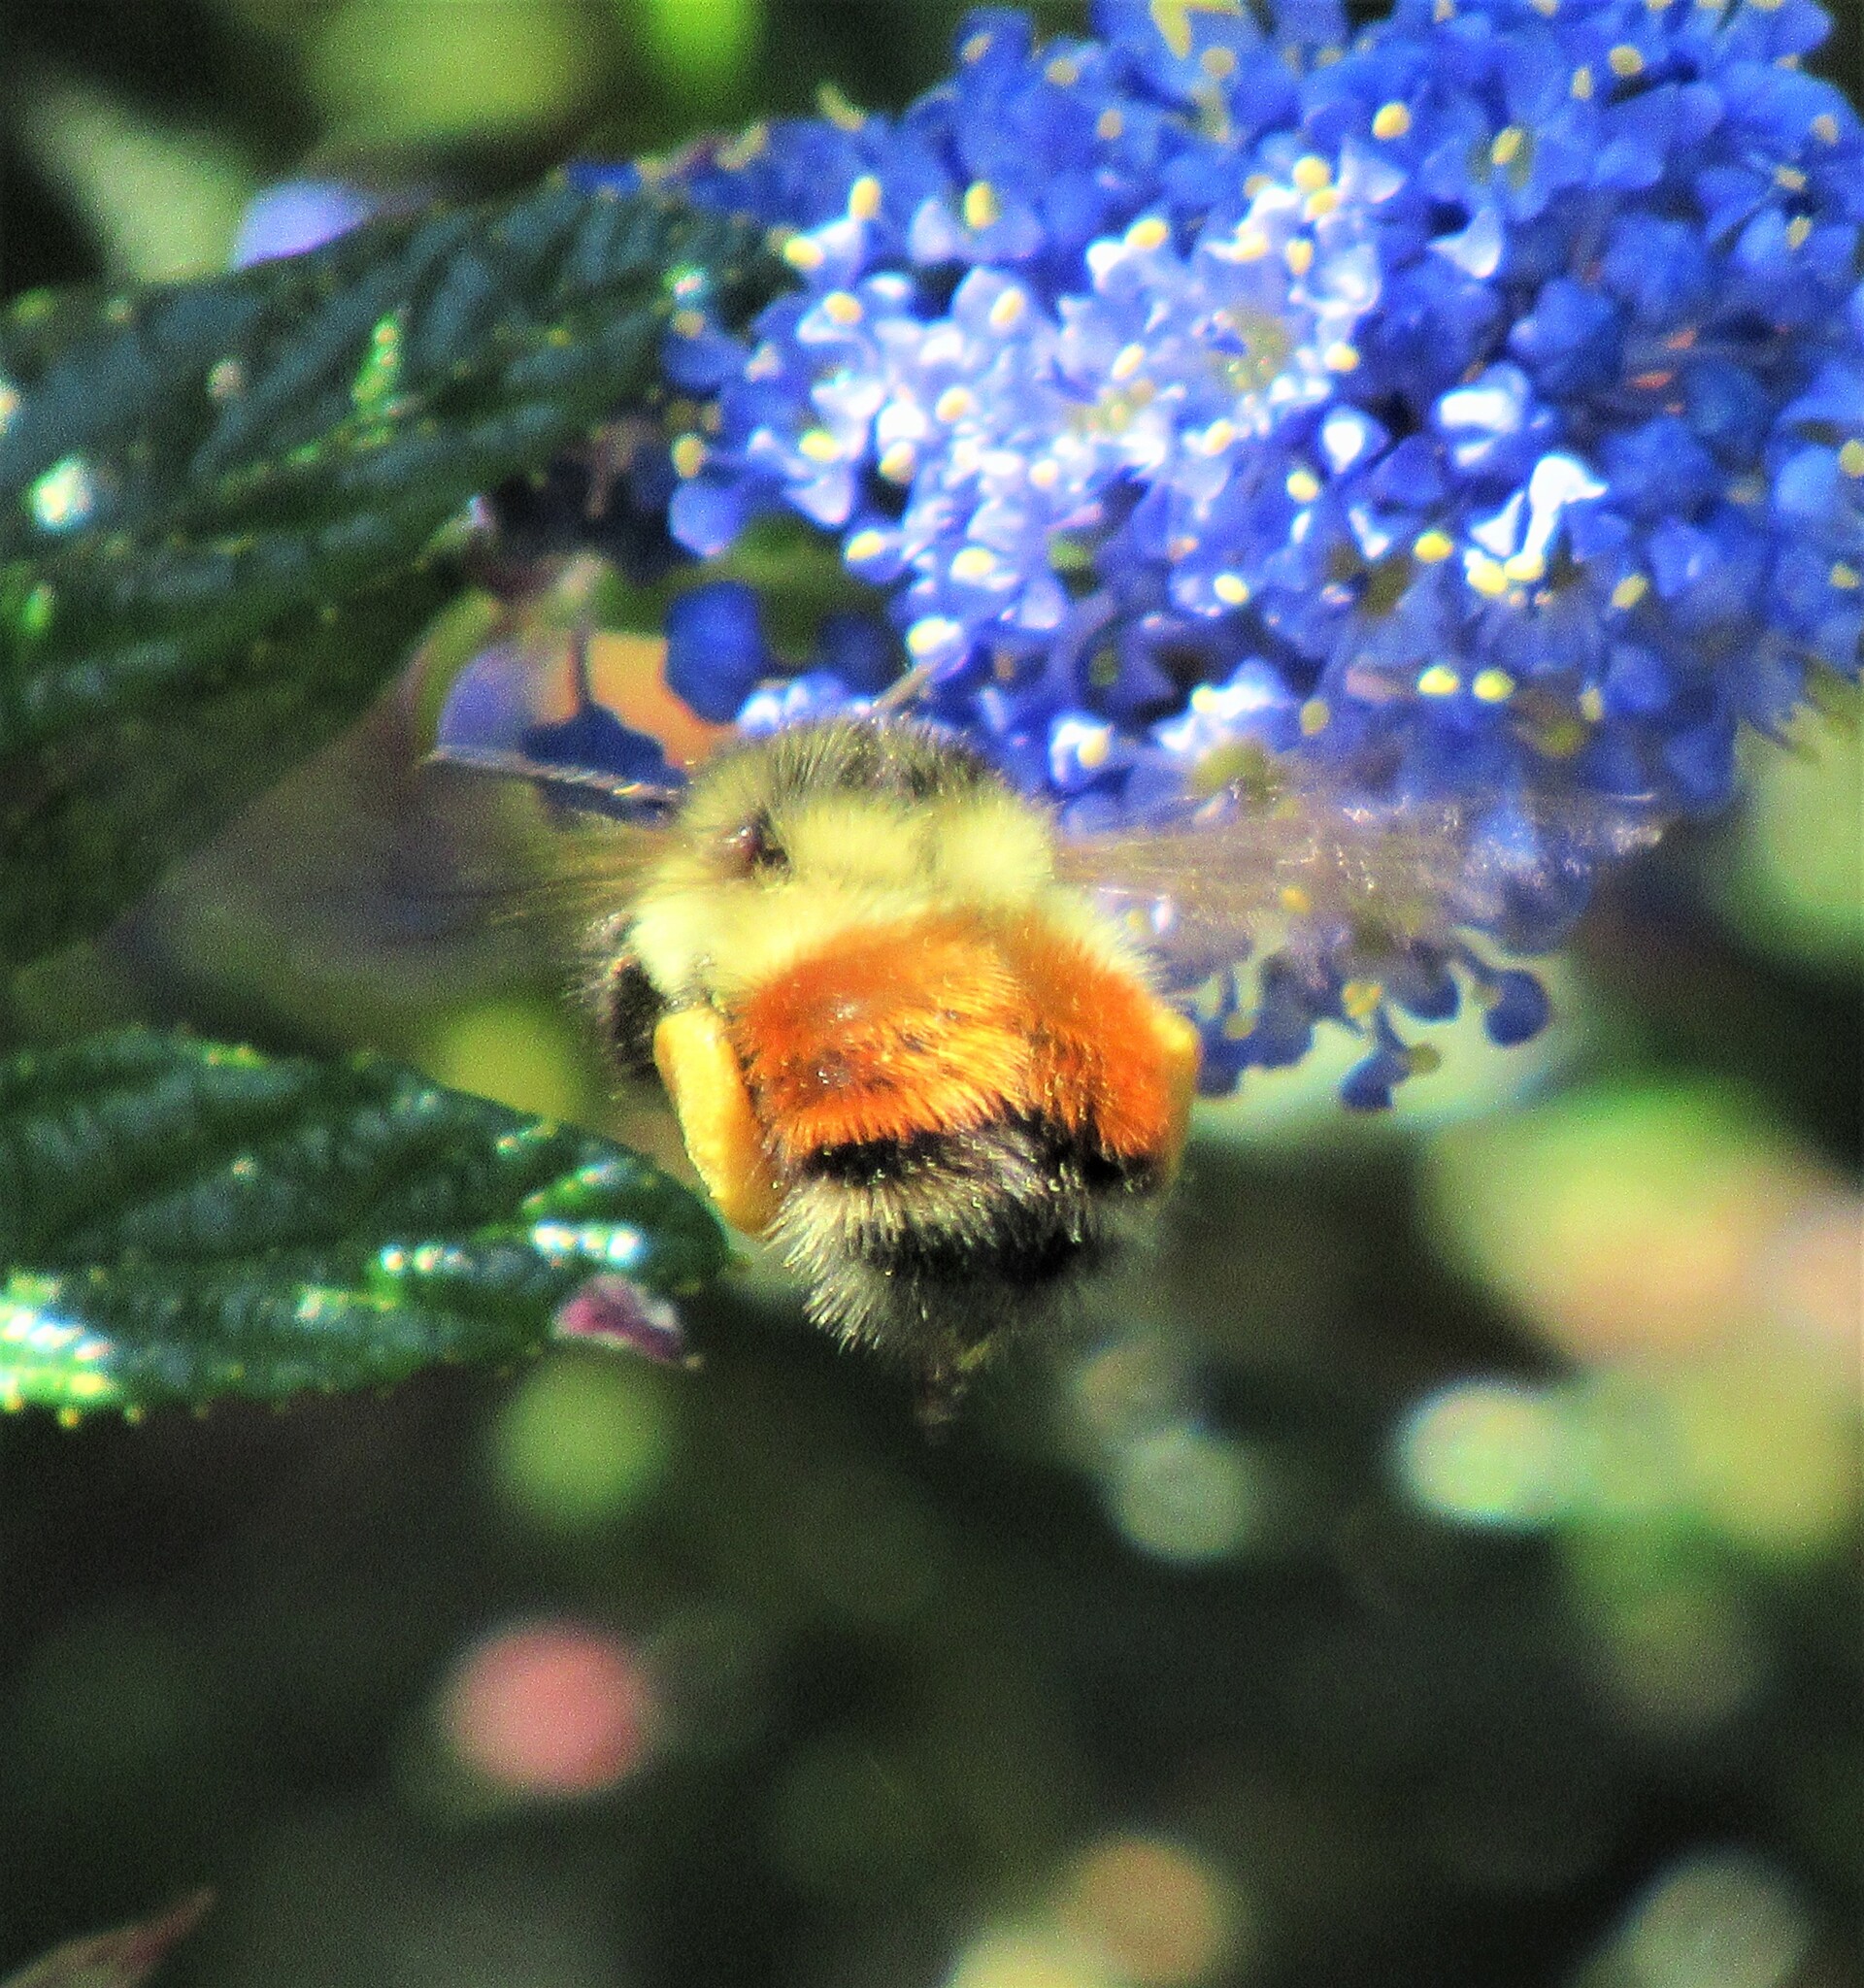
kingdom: Animalia
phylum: Arthropoda
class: Insecta
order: Hymenoptera
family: Apidae
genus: Bombus
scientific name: Bombus melanopygus
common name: Black tail bumble bee
